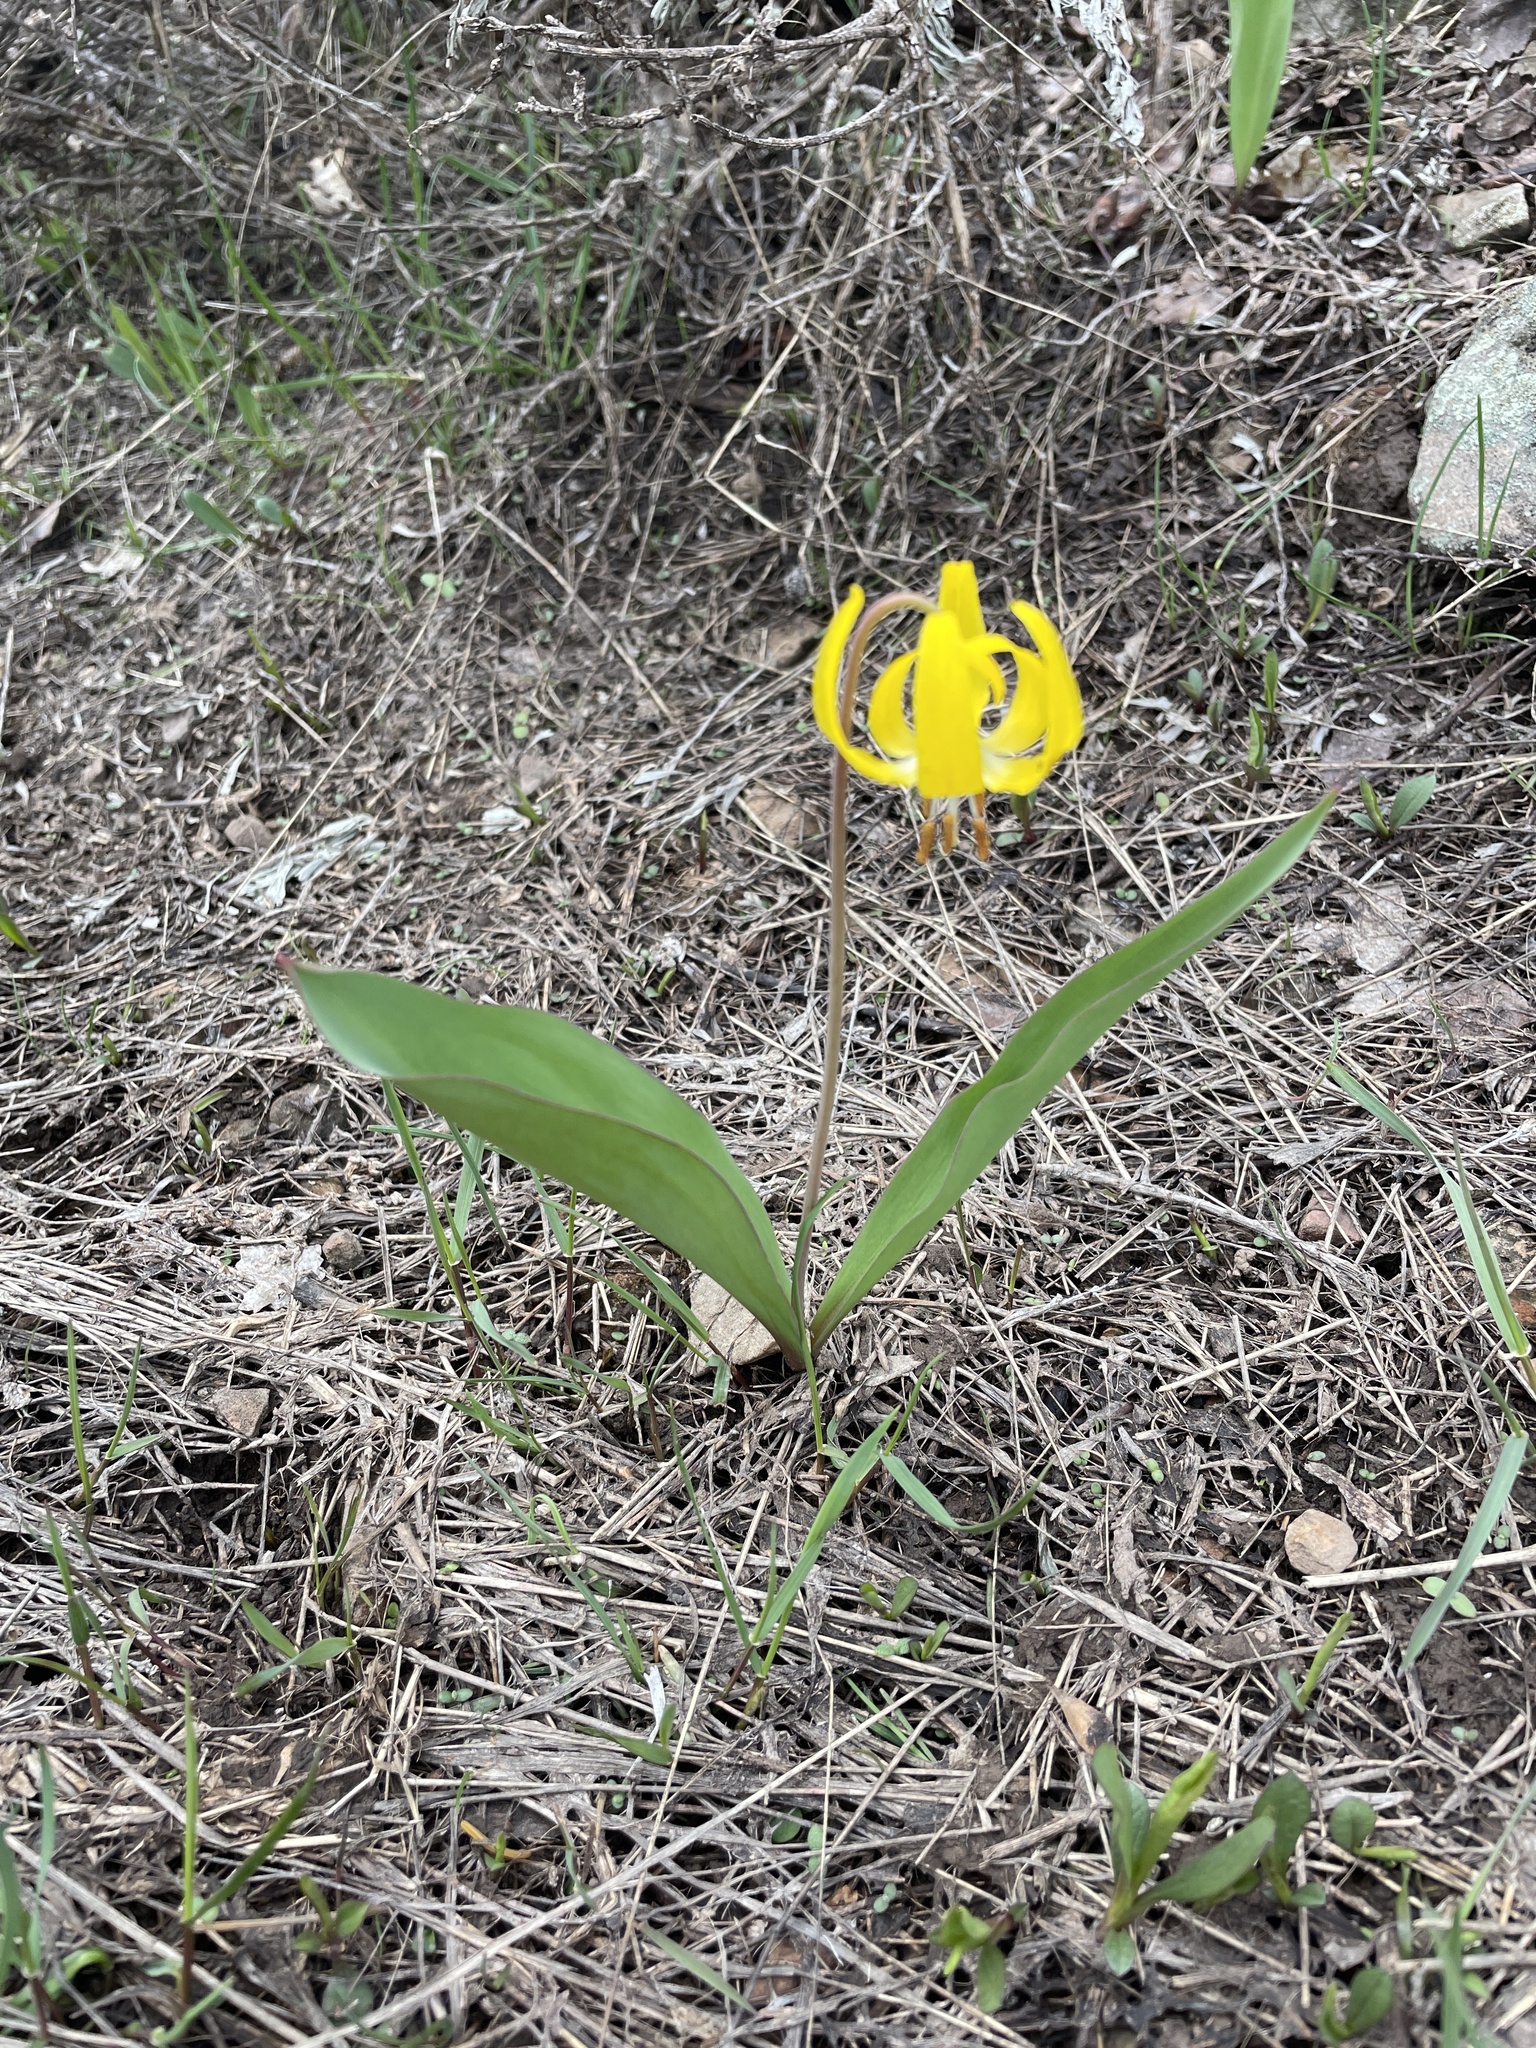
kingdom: Plantae
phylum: Tracheophyta
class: Liliopsida
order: Liliales
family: Liliaceae
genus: Erythronium
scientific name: Erythronium grandiflorum
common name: Avalanche-lily
